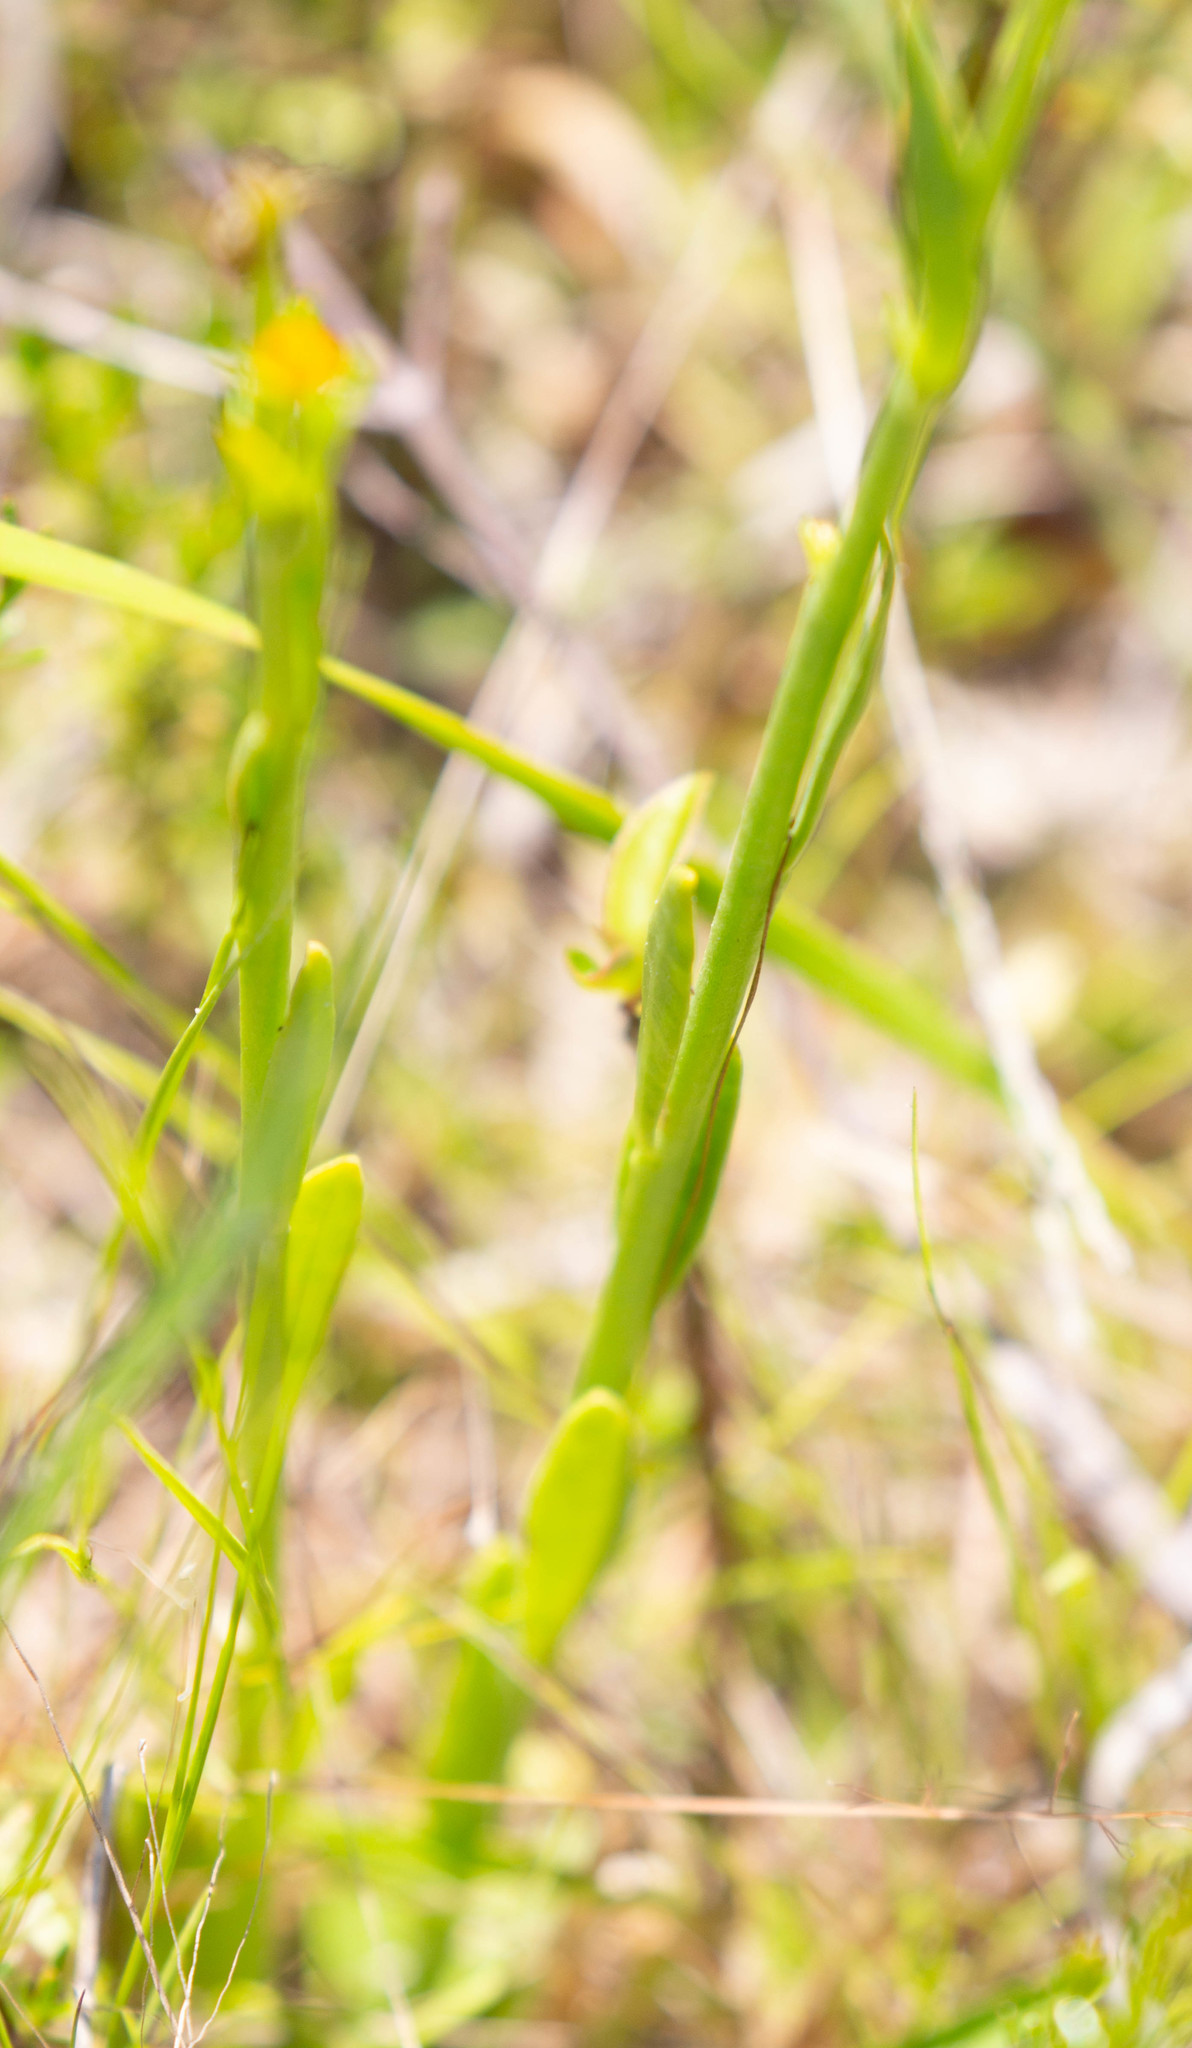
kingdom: Plantae
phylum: Tracheophyta
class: Magnoliopsida
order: Fabales
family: Polygalaceae
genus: Polygala
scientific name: Polygala lutea
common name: Orange milkwort
